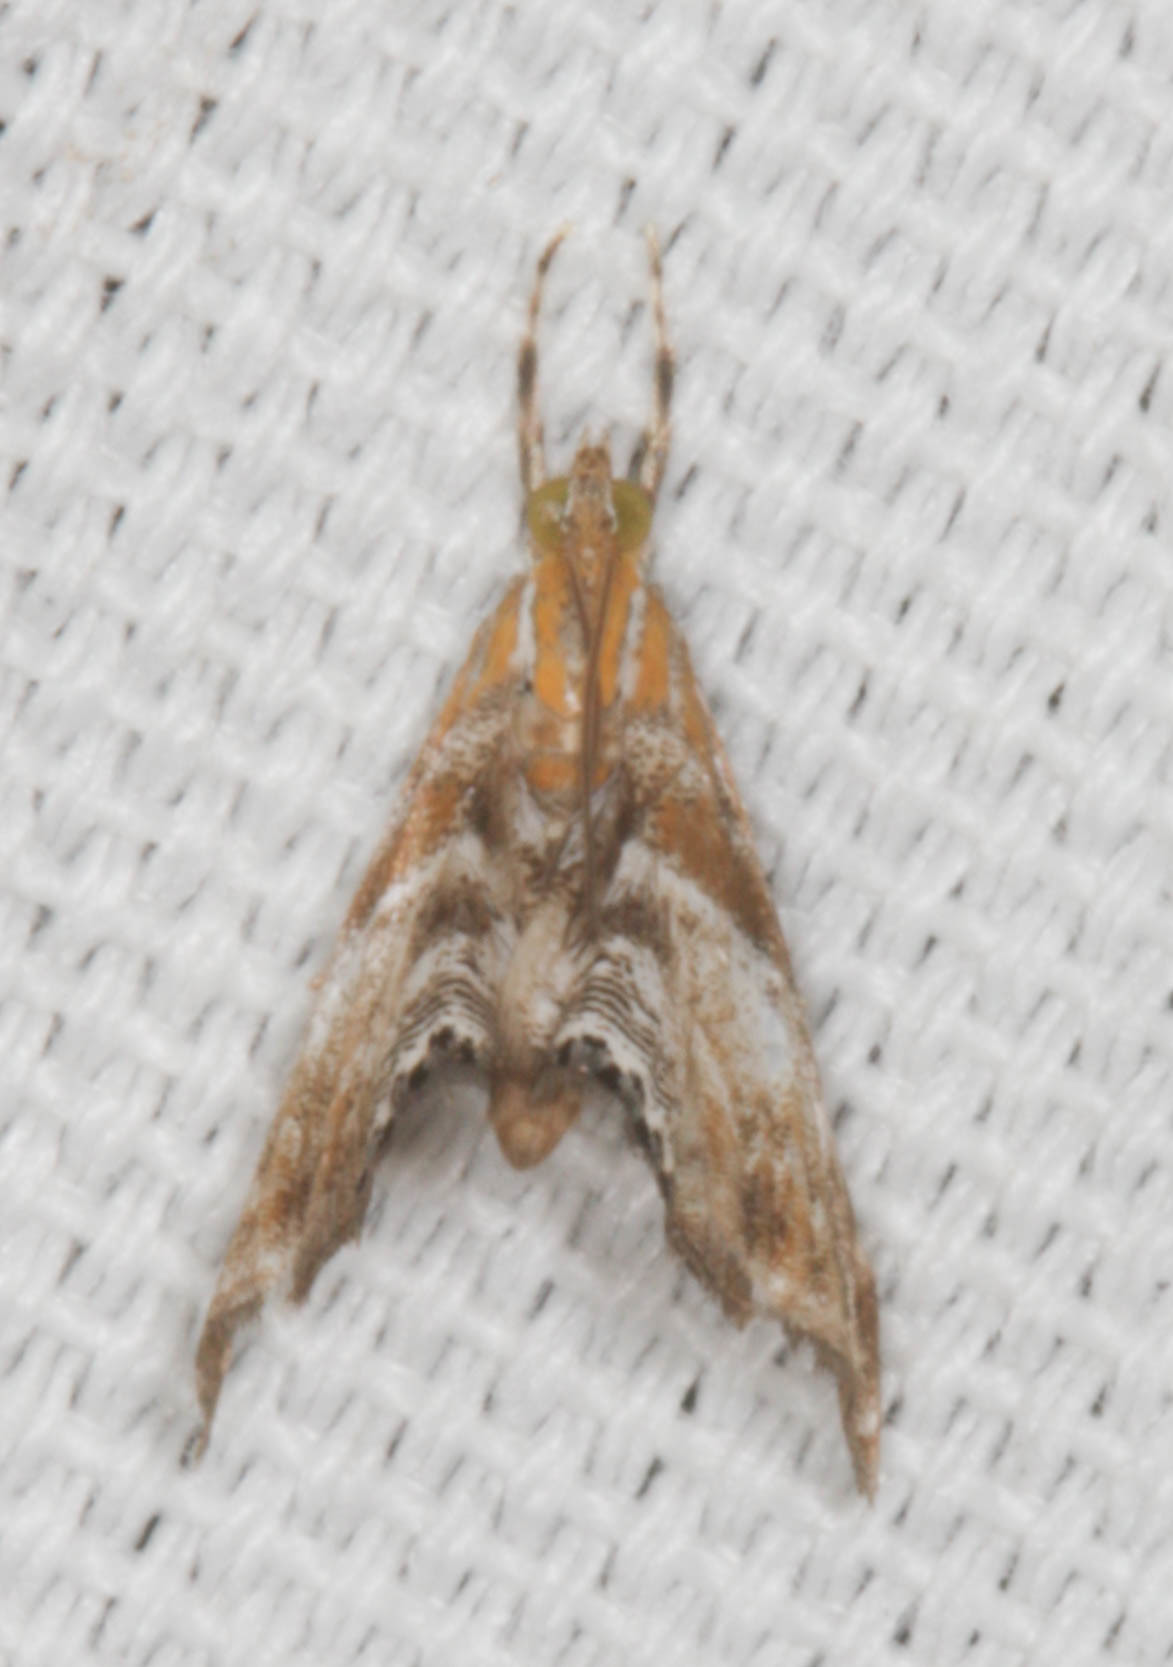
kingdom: Animalia
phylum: Arthropoda
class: Insecta
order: Lepidoptera
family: Crambidae
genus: Dicymolomia
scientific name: Dicymolomia metalliferalis
